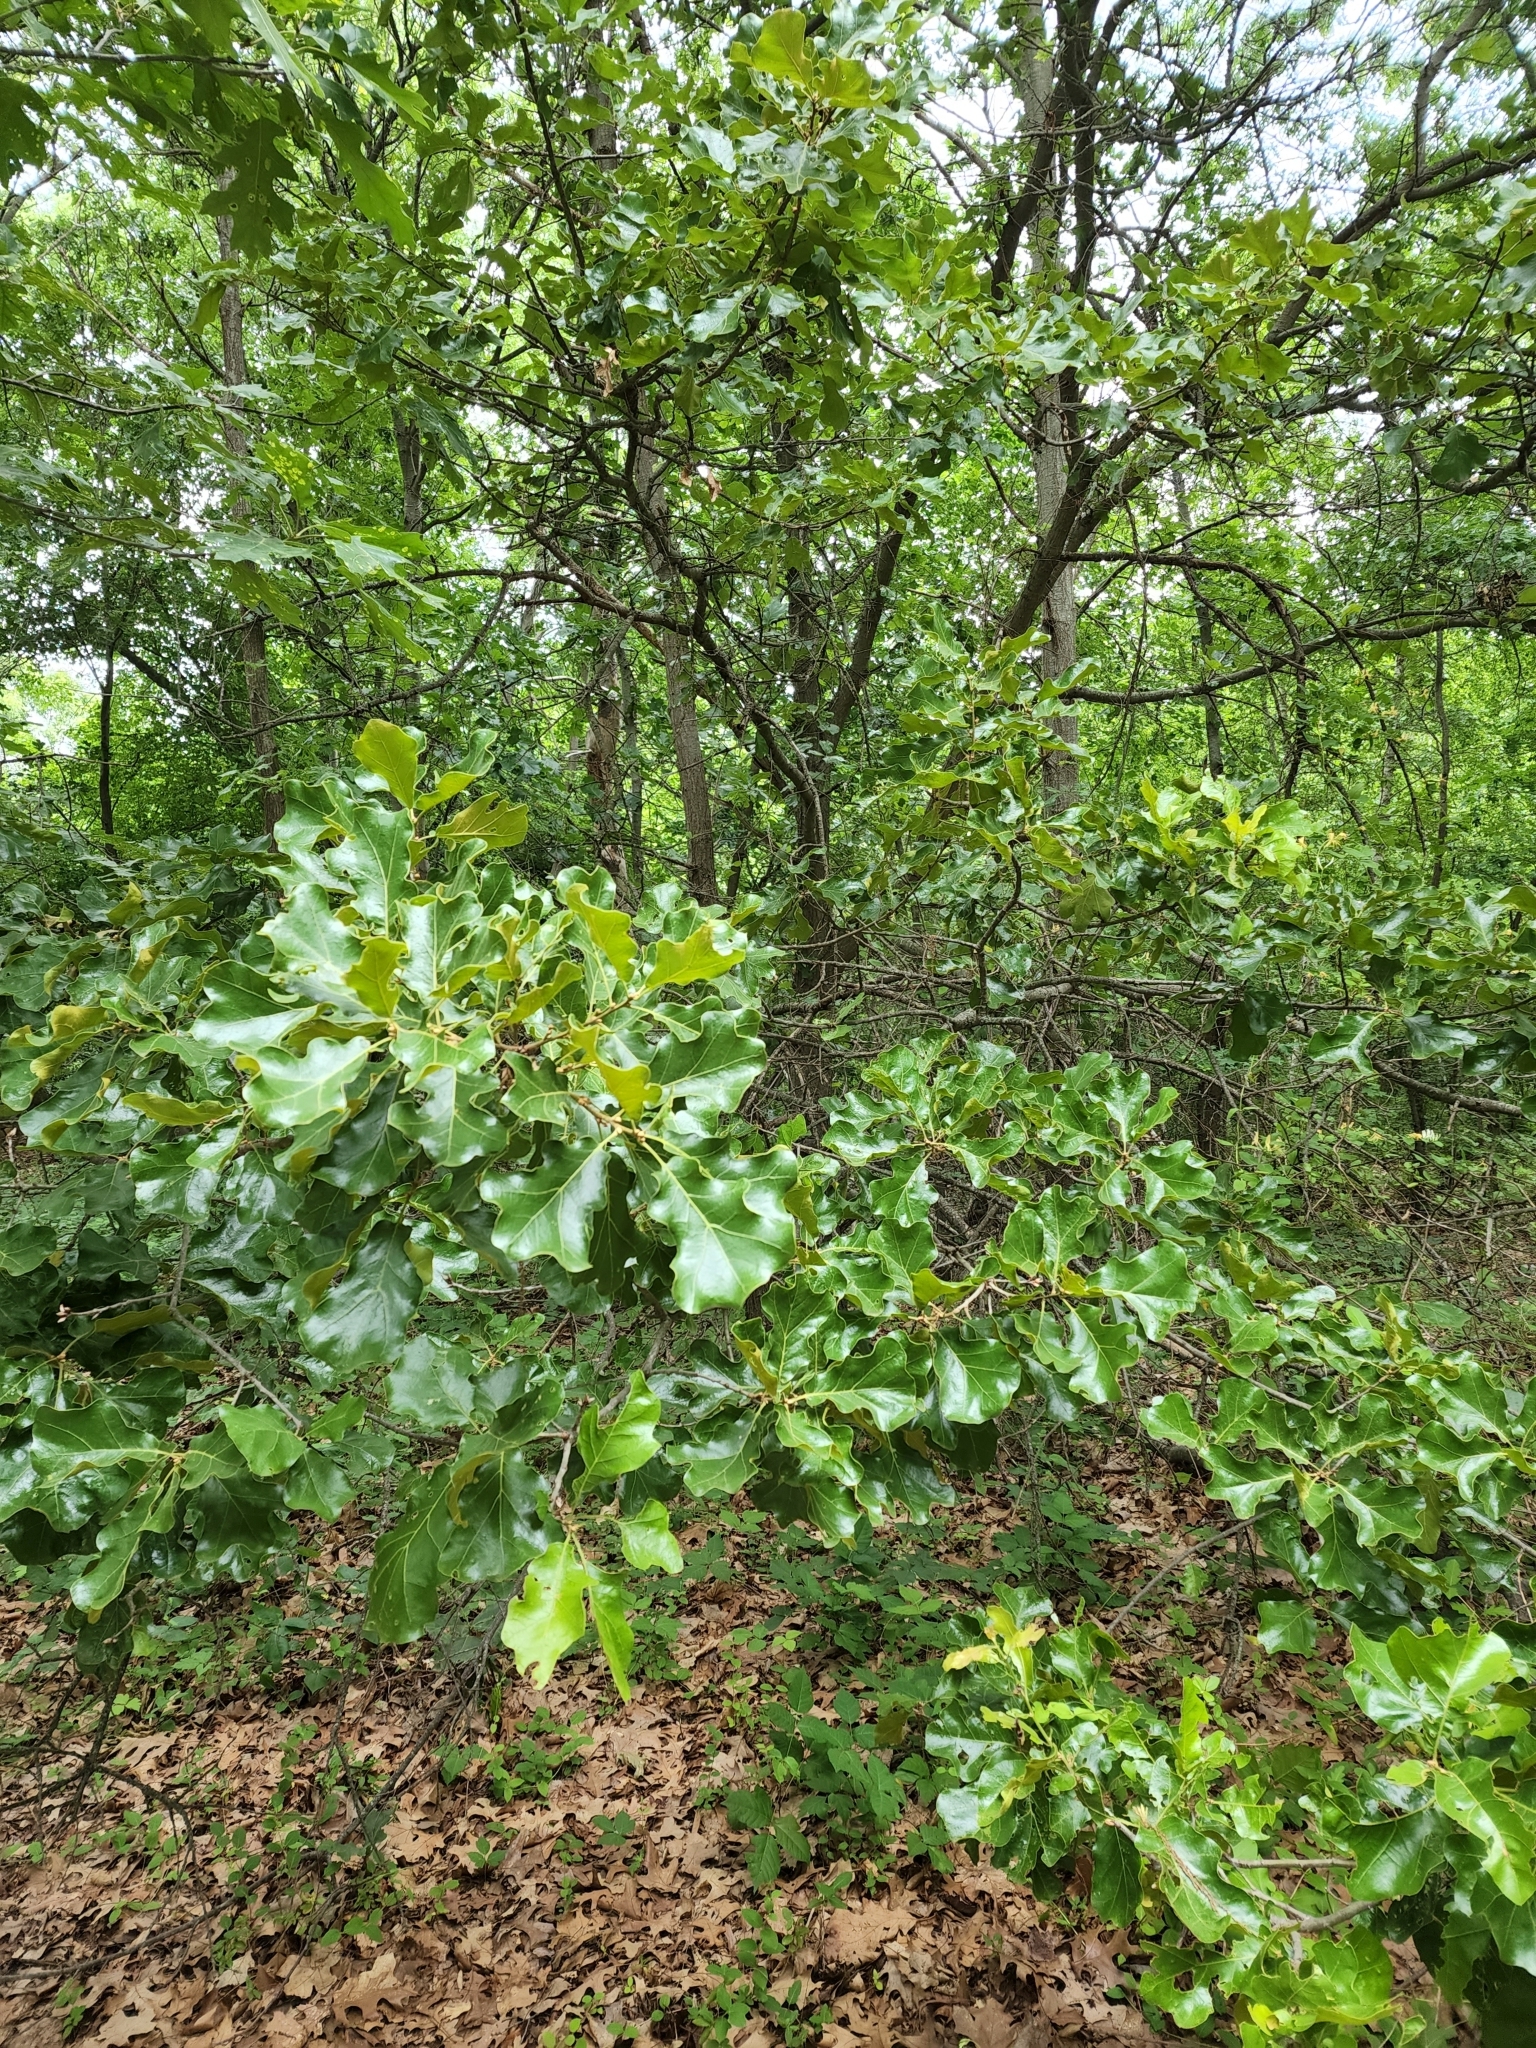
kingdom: Plantae
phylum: Tracheophyta
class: Magnoliopsida
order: Fagales
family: Fagaceae
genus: Quercus
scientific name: Quercus marilandica
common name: Blackjack oak
